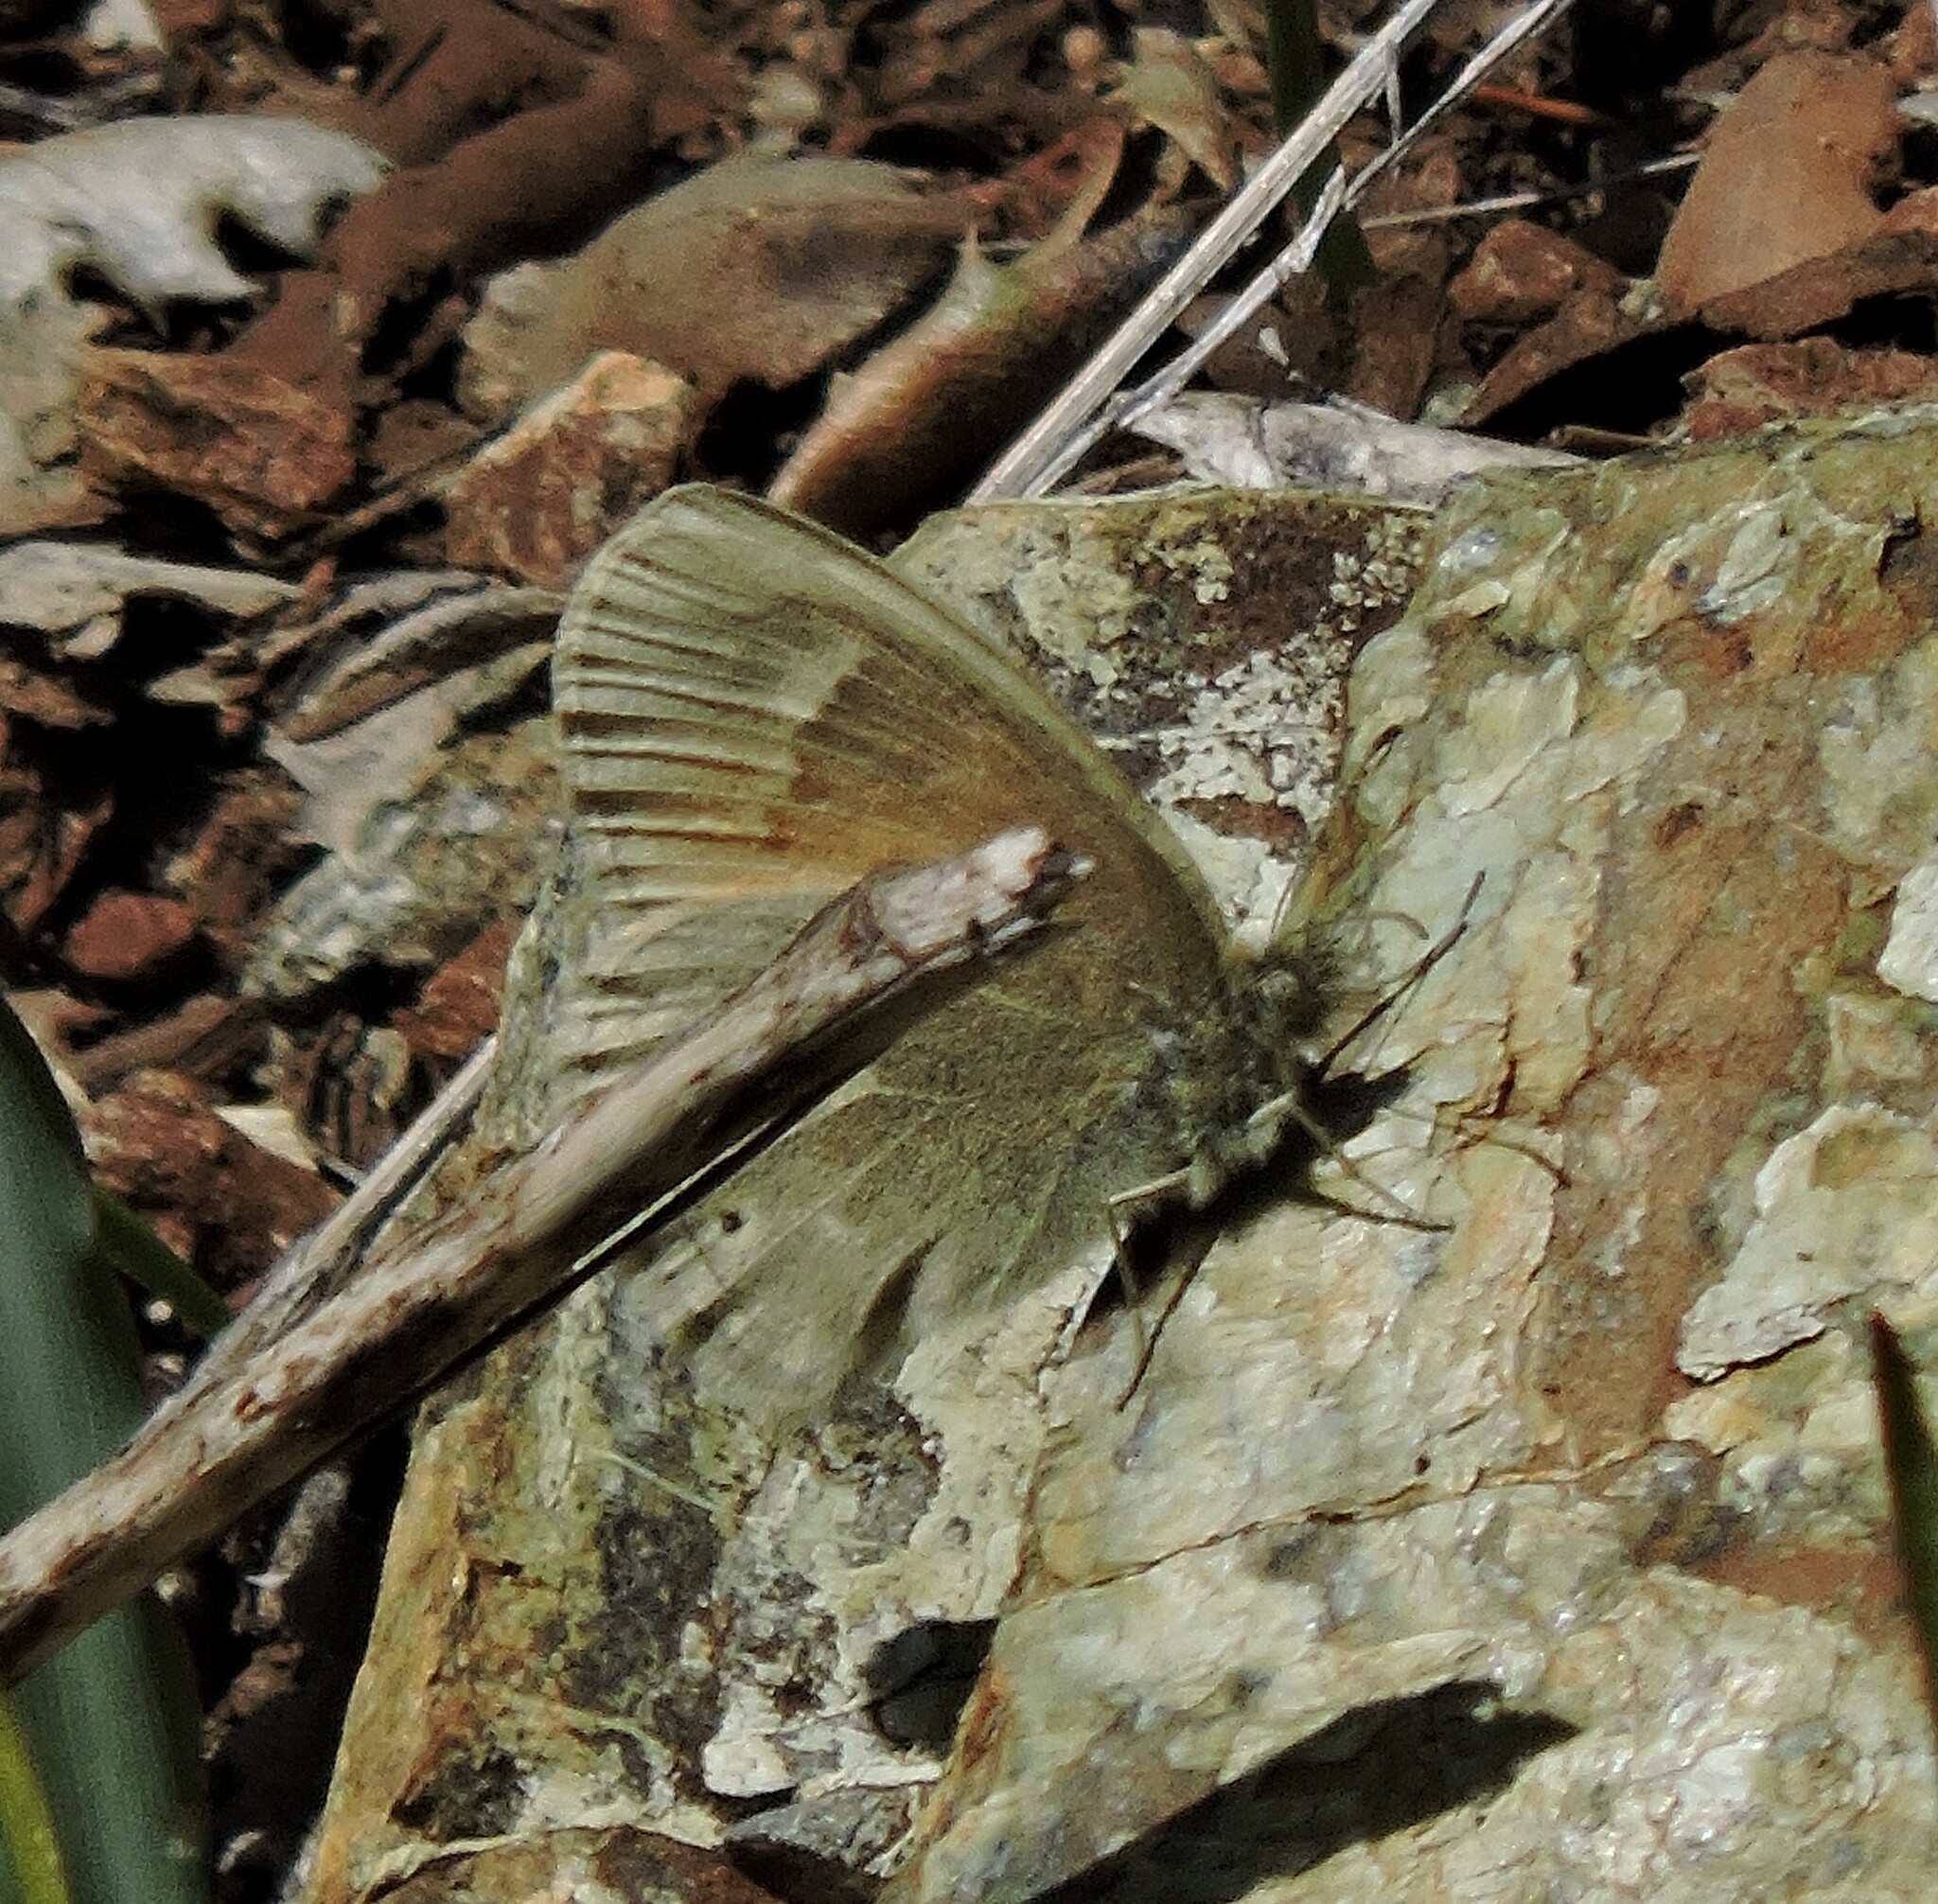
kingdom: Animalia
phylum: Arthropoda
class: Insecta
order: Lepidoptera
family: Nymphalidae
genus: Coenonympha
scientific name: Coenonympha california
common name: Common ringlet
